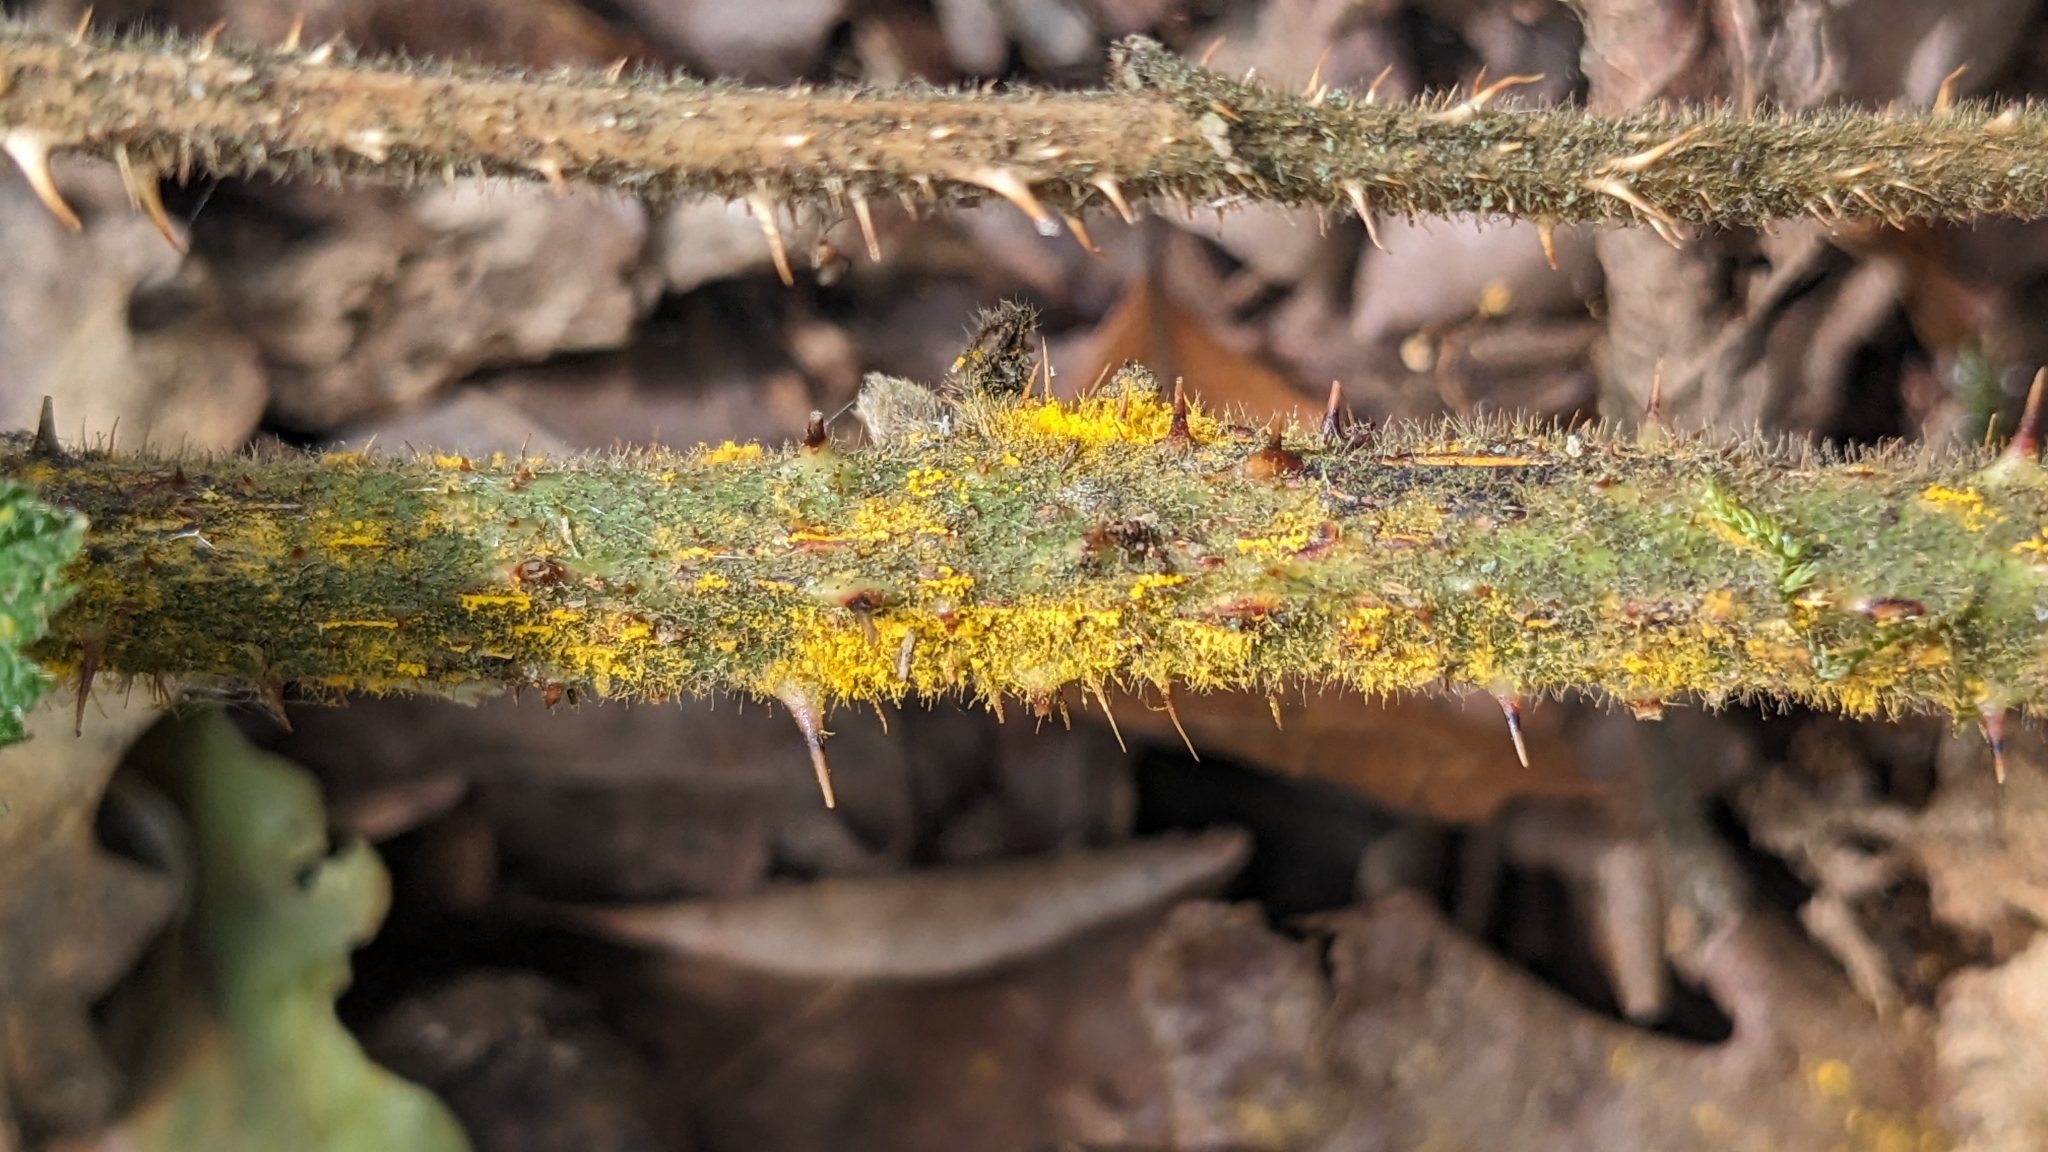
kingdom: Fungi
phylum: Basidiomycota
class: Pucciniomycetes
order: Pucciniales
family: Phragmidiaceae
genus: Kuehneola
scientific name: Kuehneola uredinis
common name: Bramble stem rust
